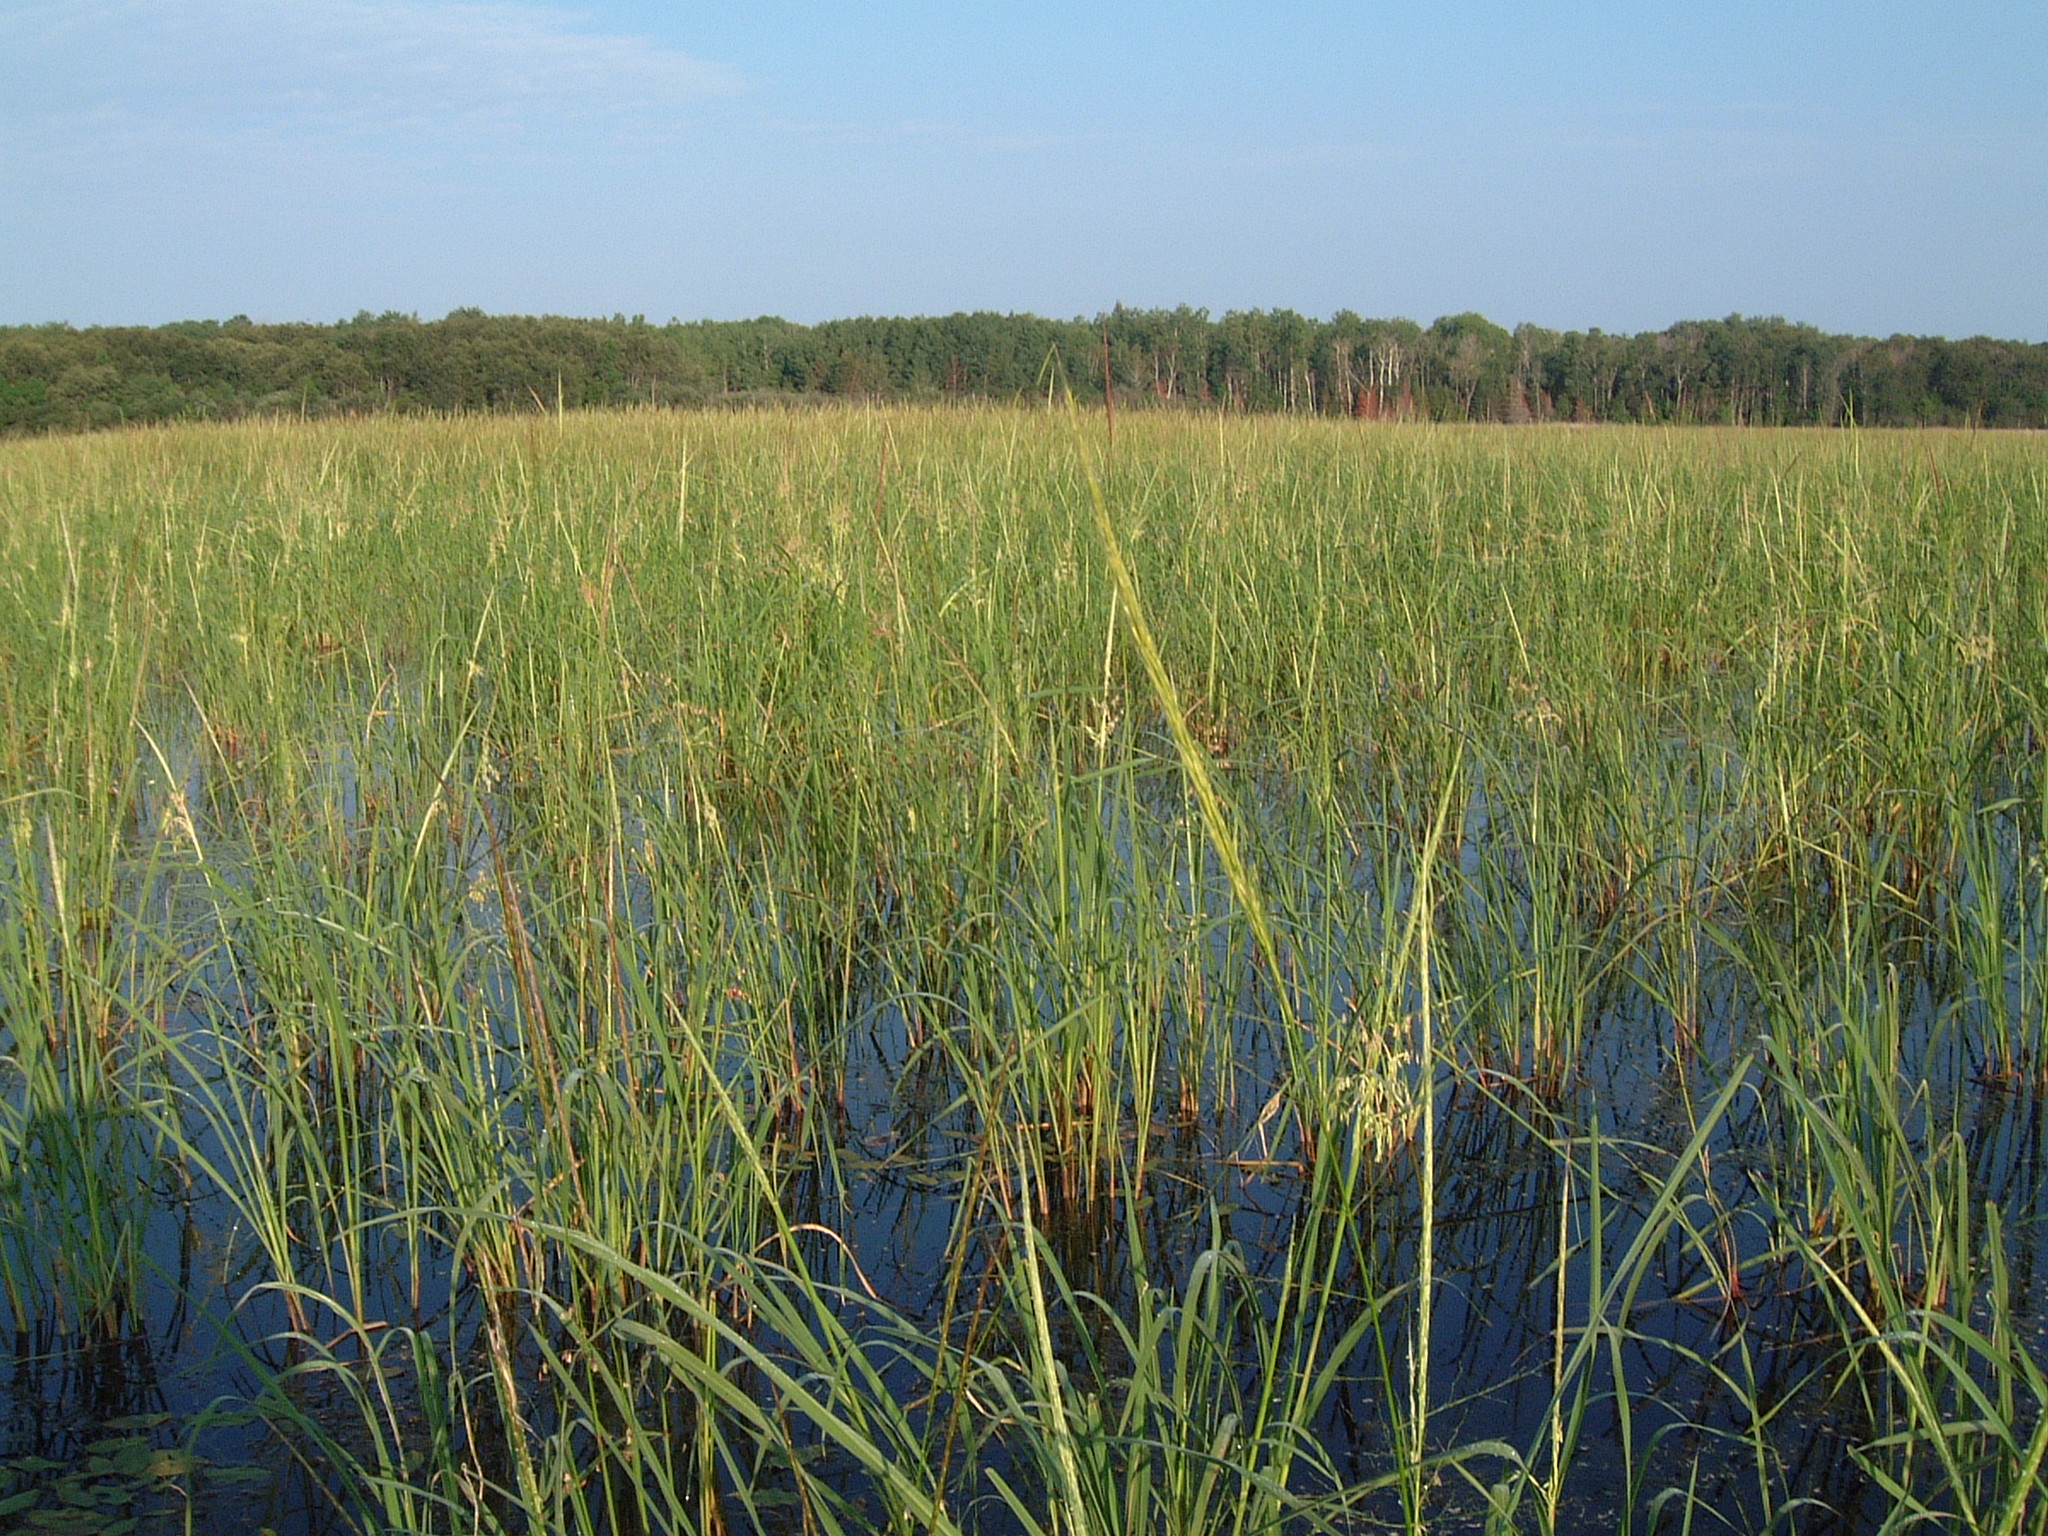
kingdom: Plantae
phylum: Tracheophyta
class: Liliopsida
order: Poales
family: Poaceae
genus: Zizania
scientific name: Zizania palustris
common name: Northern wild rice
